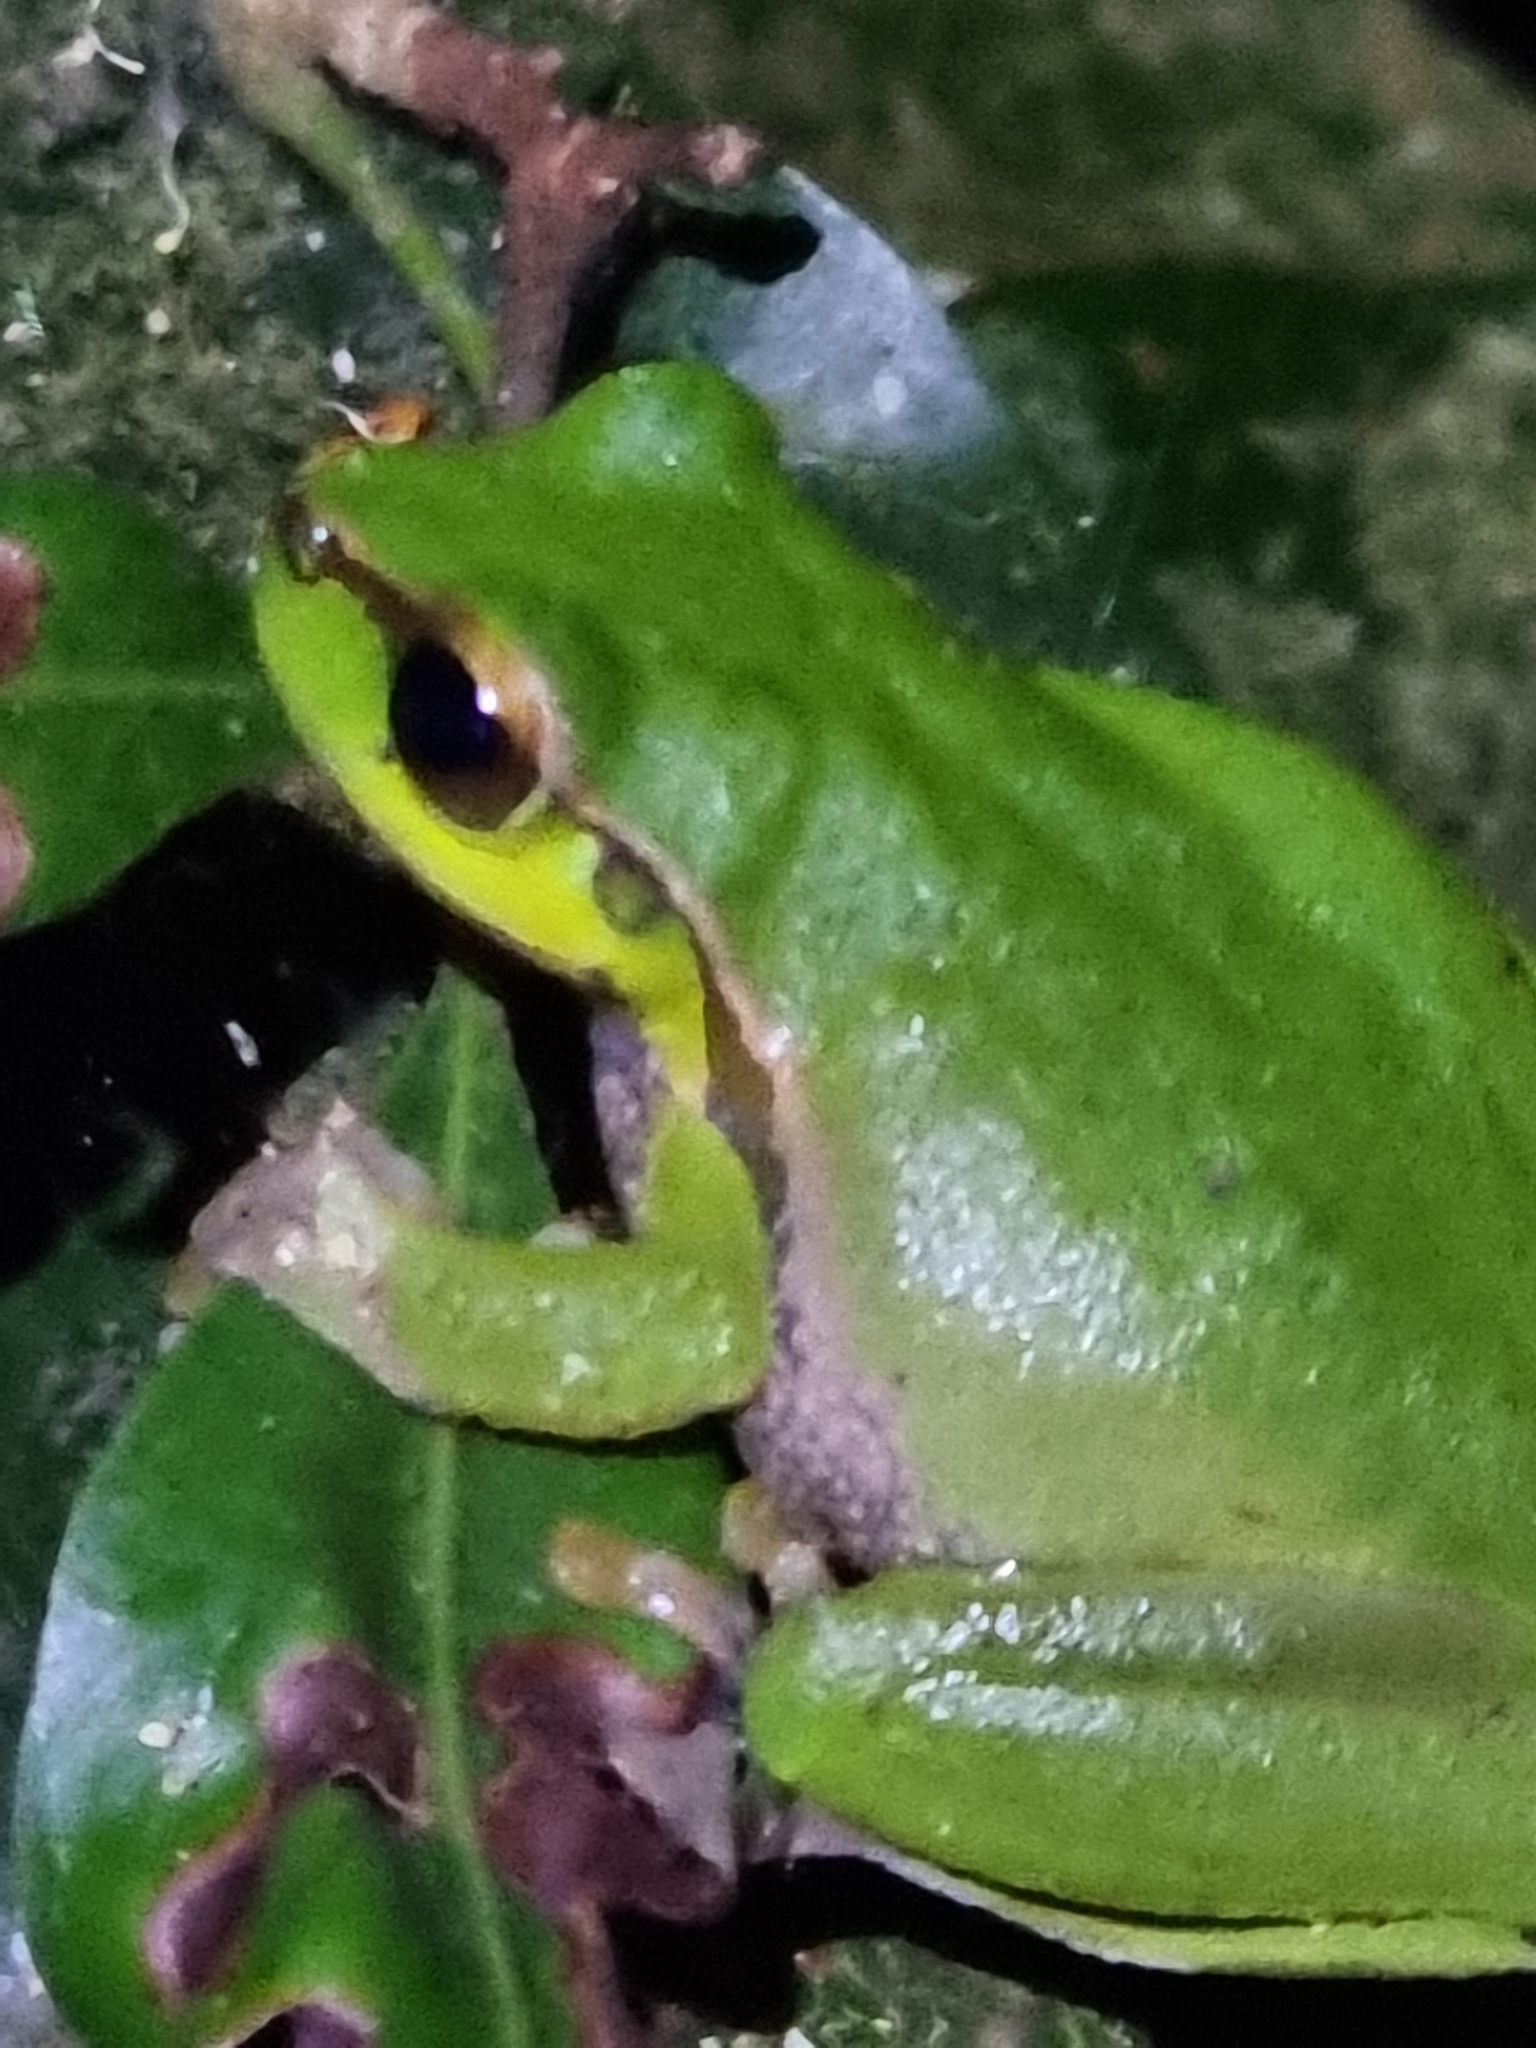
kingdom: Animalia
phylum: Chordata
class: Amphibia
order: Anura
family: Pelodryadidae
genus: Ranoidea
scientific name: Ranoidea pearsoniana
